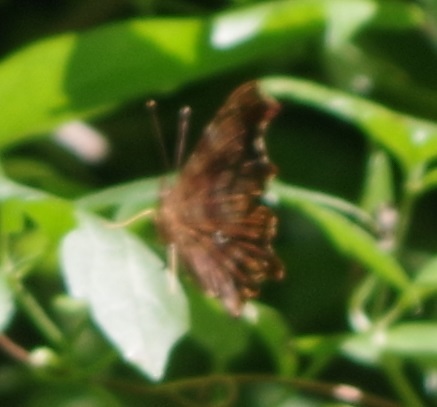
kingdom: Animalia
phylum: Arthropoda
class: Insecta
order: Lepidoptera
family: Nymphalidae
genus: Polygonia
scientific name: Polygonia c-album
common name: Comma
